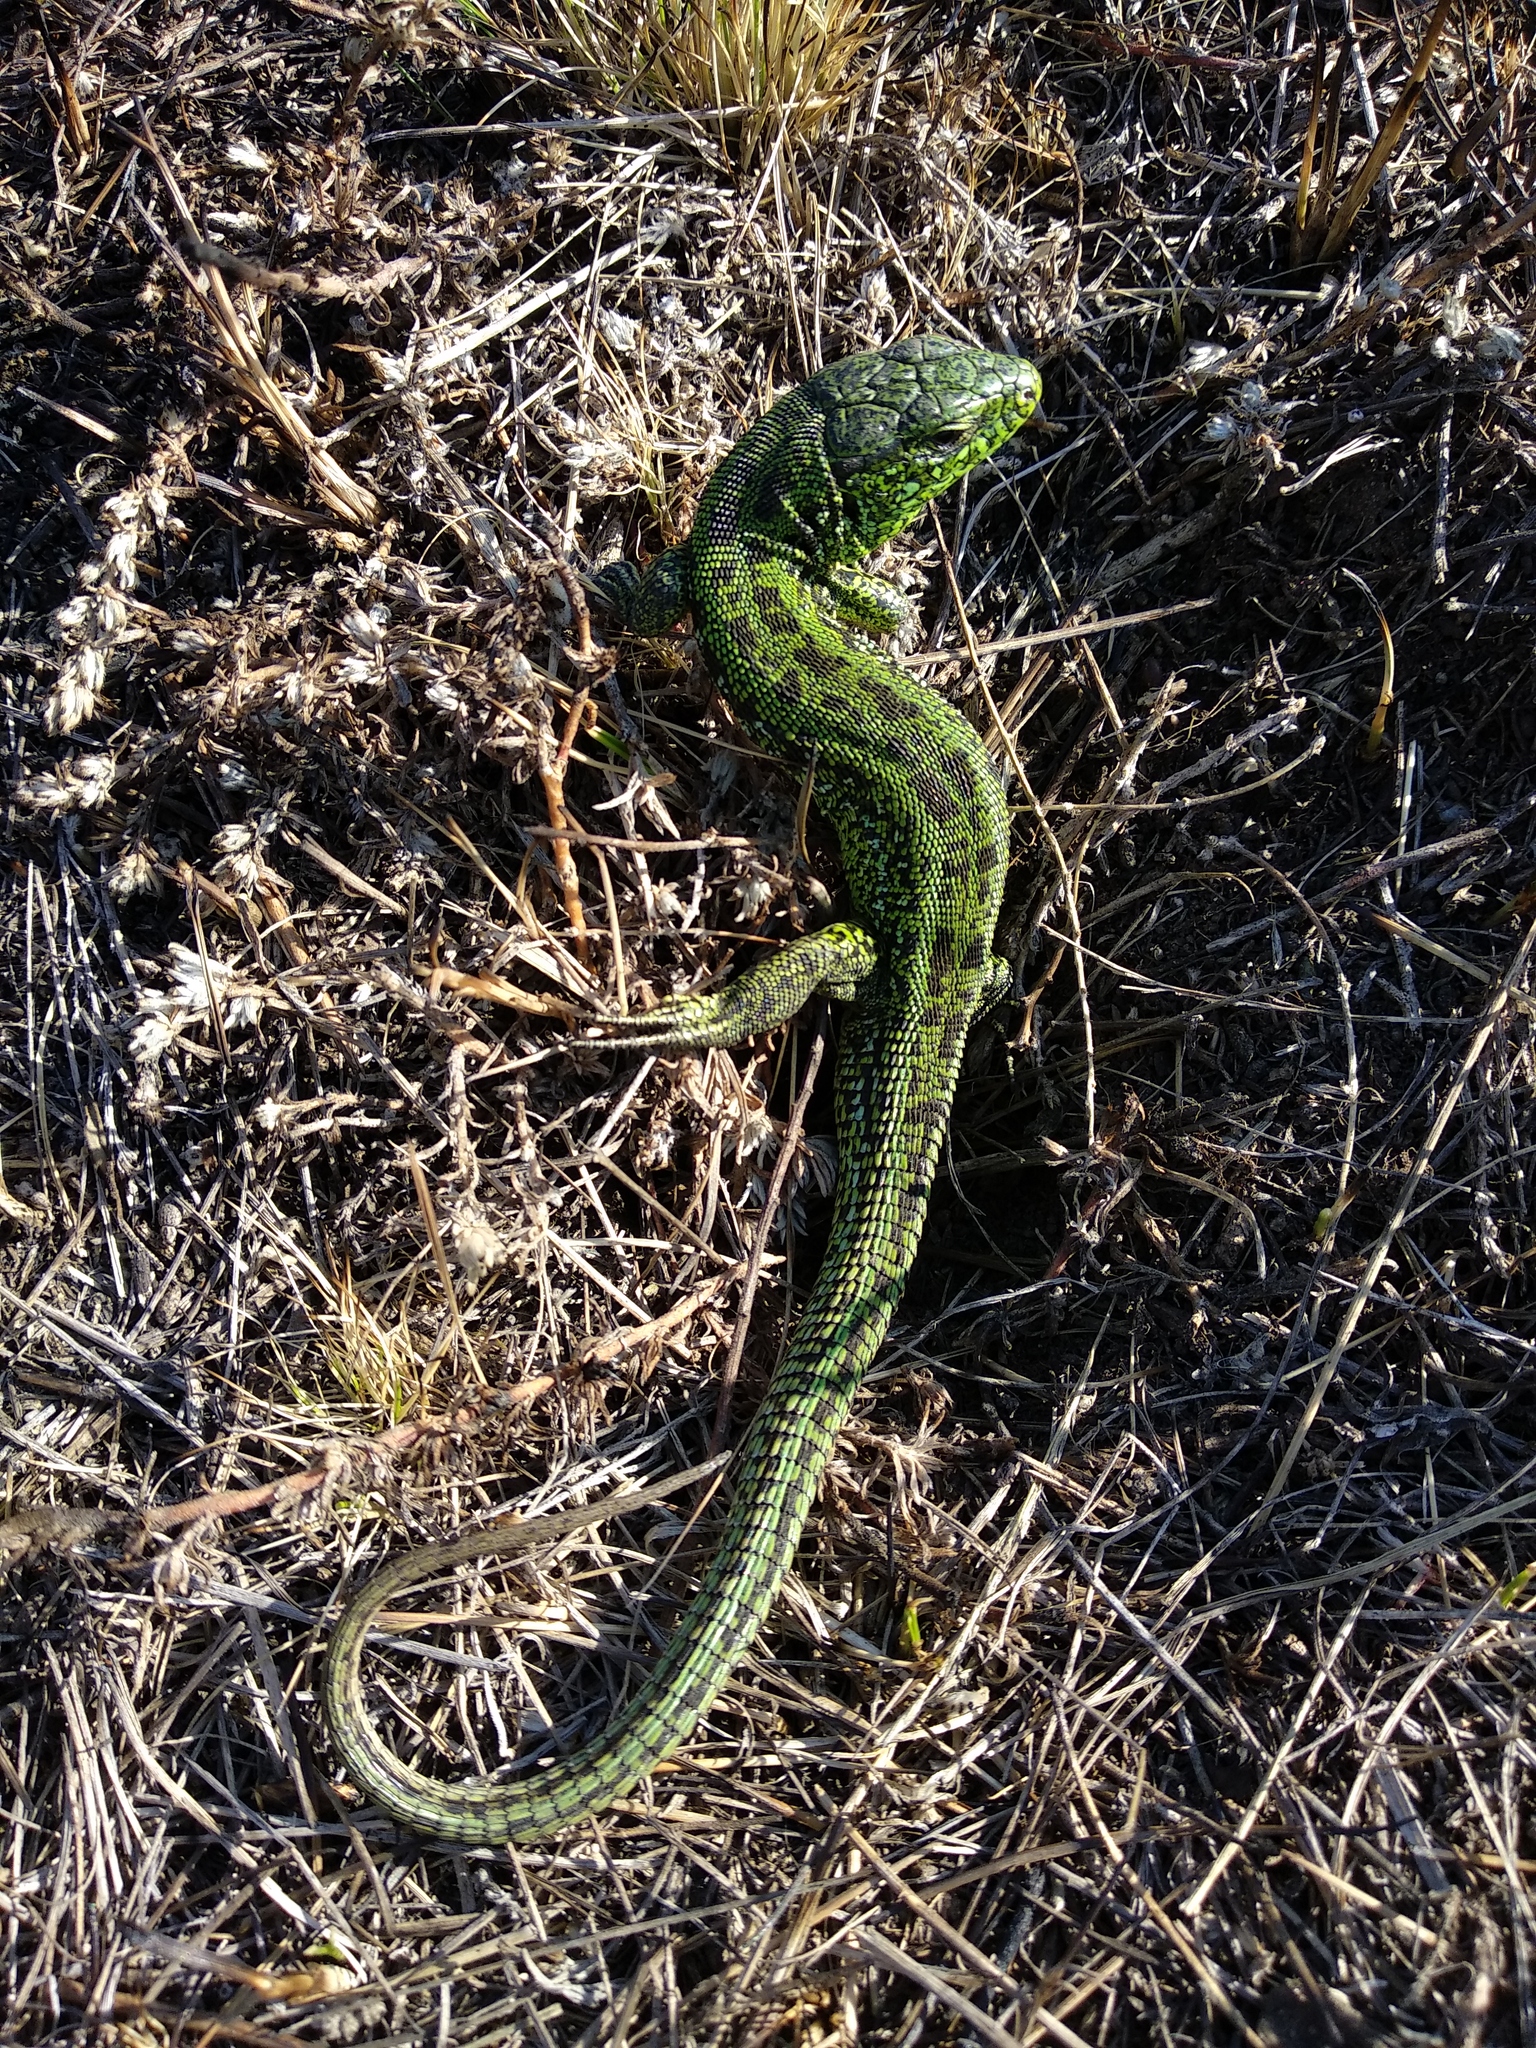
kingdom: Animalia
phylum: Chordata
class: Squamata
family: Lacertidae
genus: Lacerta
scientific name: Lacerta agilis
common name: Sand lizard
